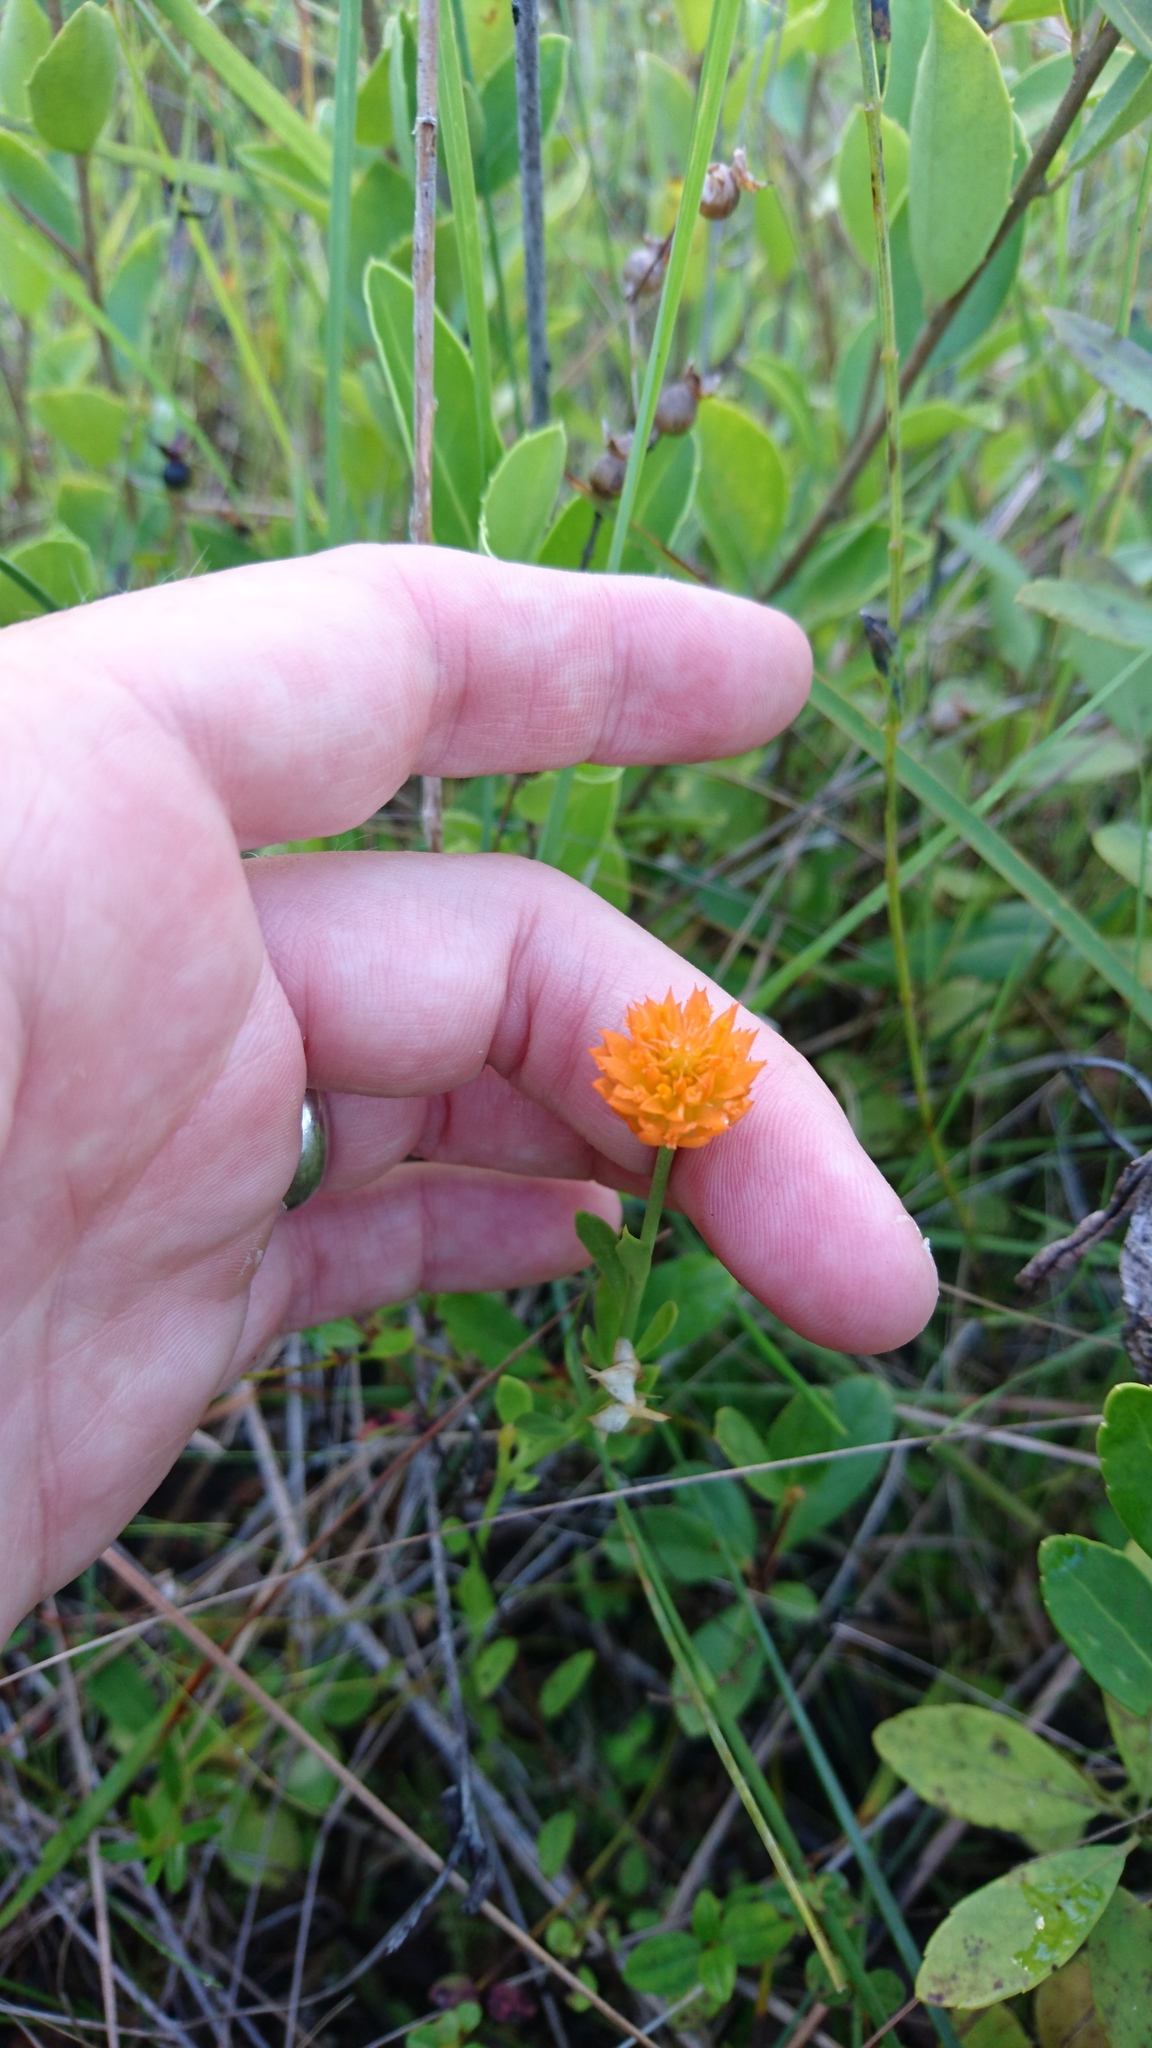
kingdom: Plantae
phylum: Tracheophyta
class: Magnoliopsida
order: Fabales
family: Polygalaceae
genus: Polygala
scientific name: Polygala lutea
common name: Orange milkwort
